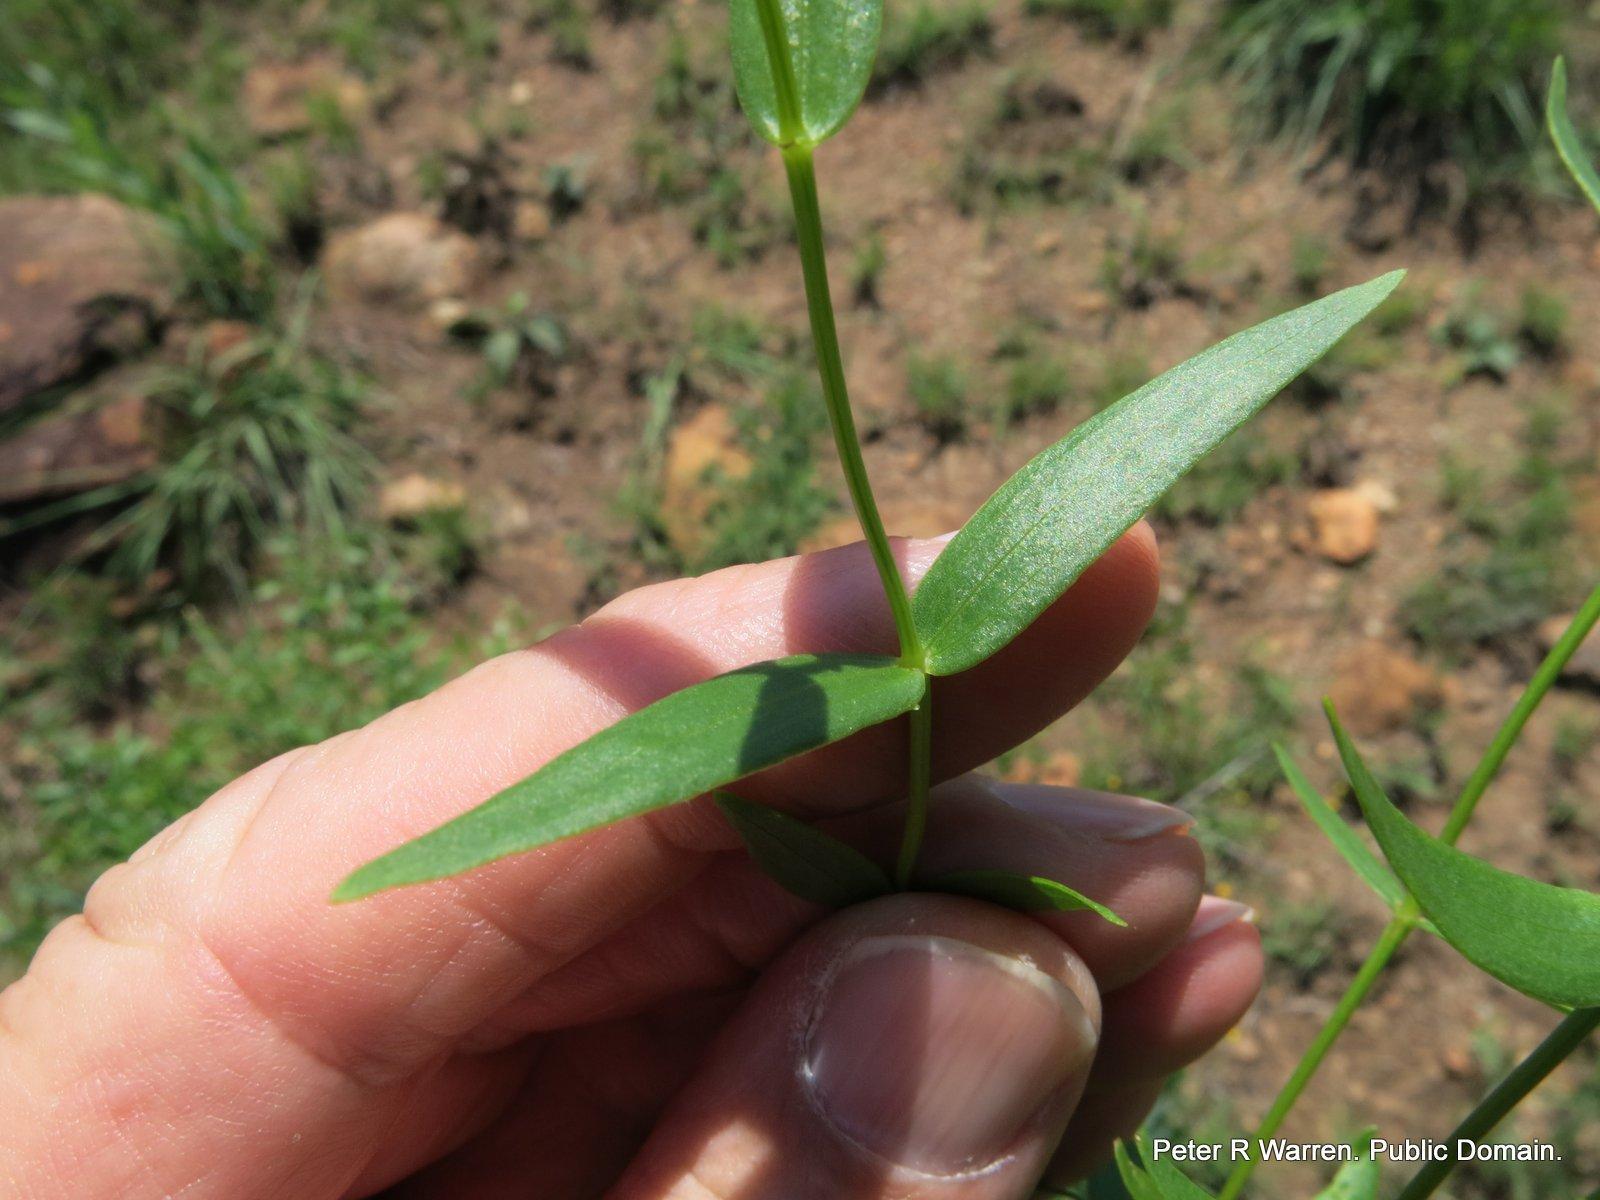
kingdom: Plantae
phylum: Tracheophyta
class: Magnoliopsida
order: Asterales
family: Asteraceae
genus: Callilepis
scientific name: Callilepis laureola
